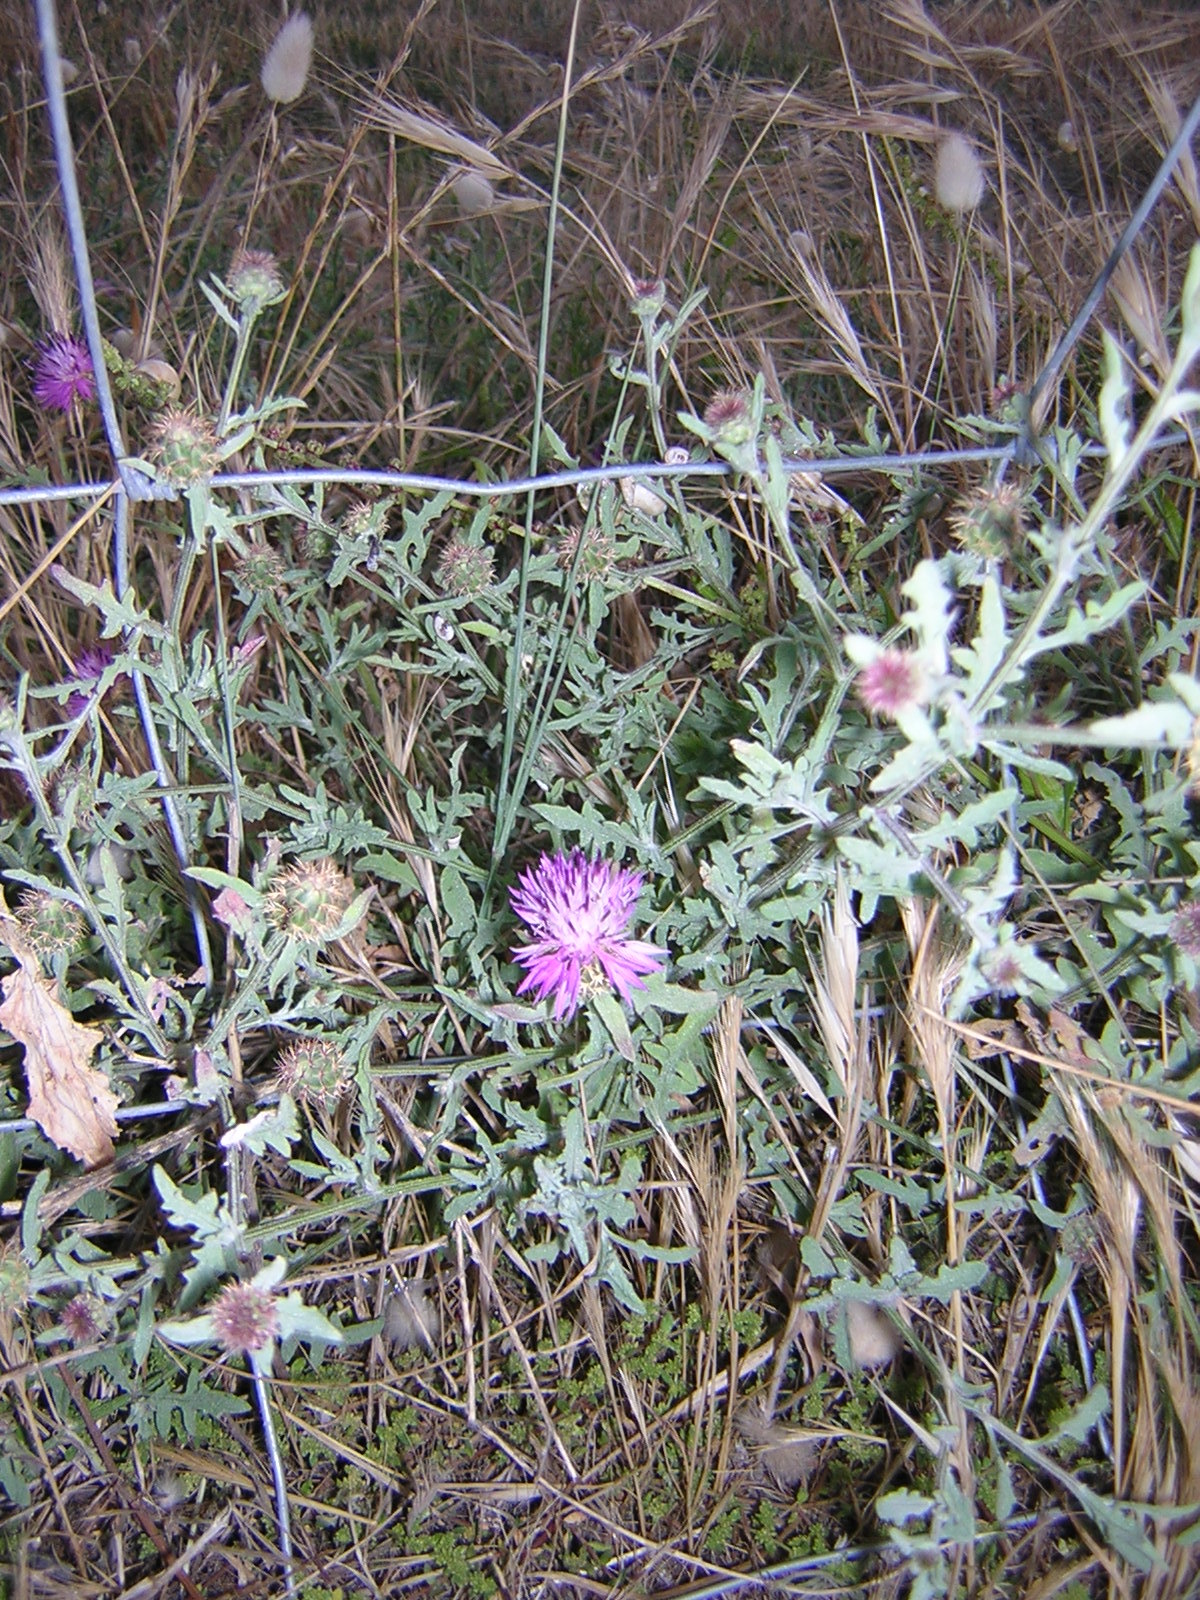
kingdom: Plantae
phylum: Tracheophyta
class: Magnoliopsida
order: Asterales
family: Asteraceae
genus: Centaurea
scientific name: Centaurea aspera
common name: Rough star-thistle
